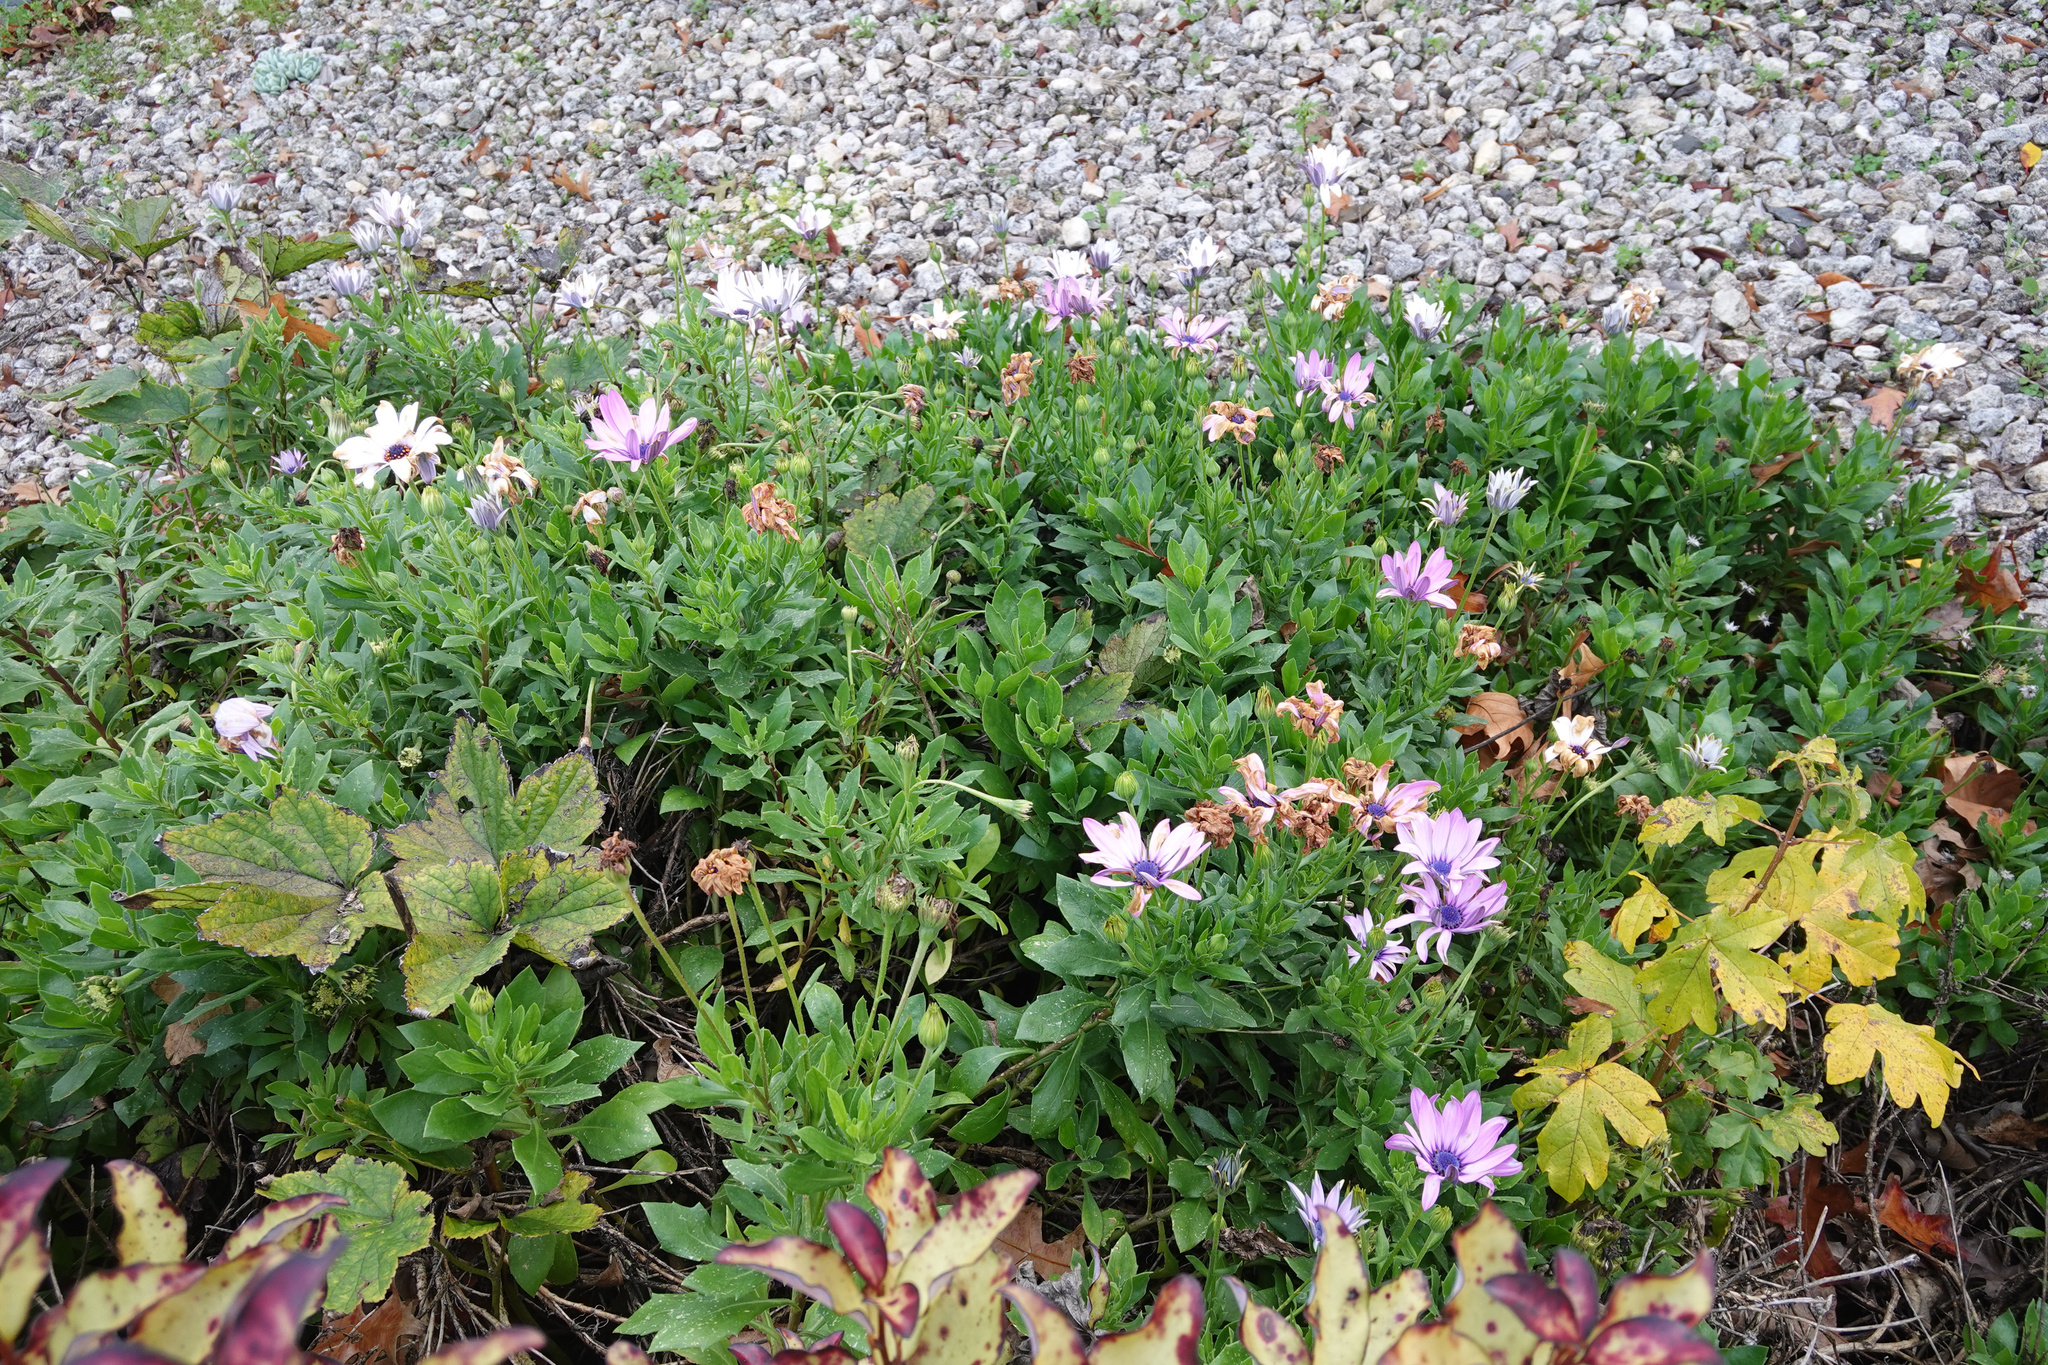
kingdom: Plantae
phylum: Tracheophyta
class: Magnoliopsida
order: Sapindales
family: Sapindaceae
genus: Acer
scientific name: Acer pseudoplatanus
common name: Sycamore
